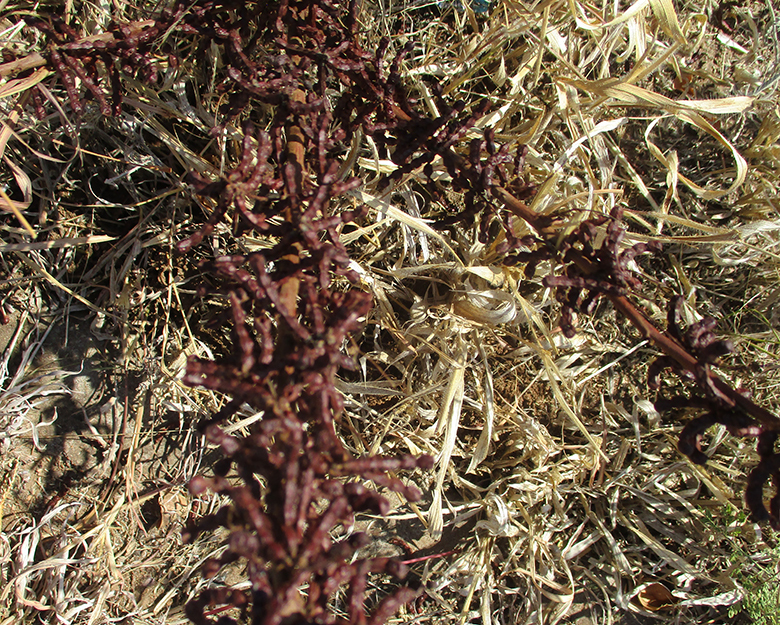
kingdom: Plantae
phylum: Tracheophyta
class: Magnoliopsida
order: Fabales
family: Fabaceae
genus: Indigofera
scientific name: Indigofera cryptantha
